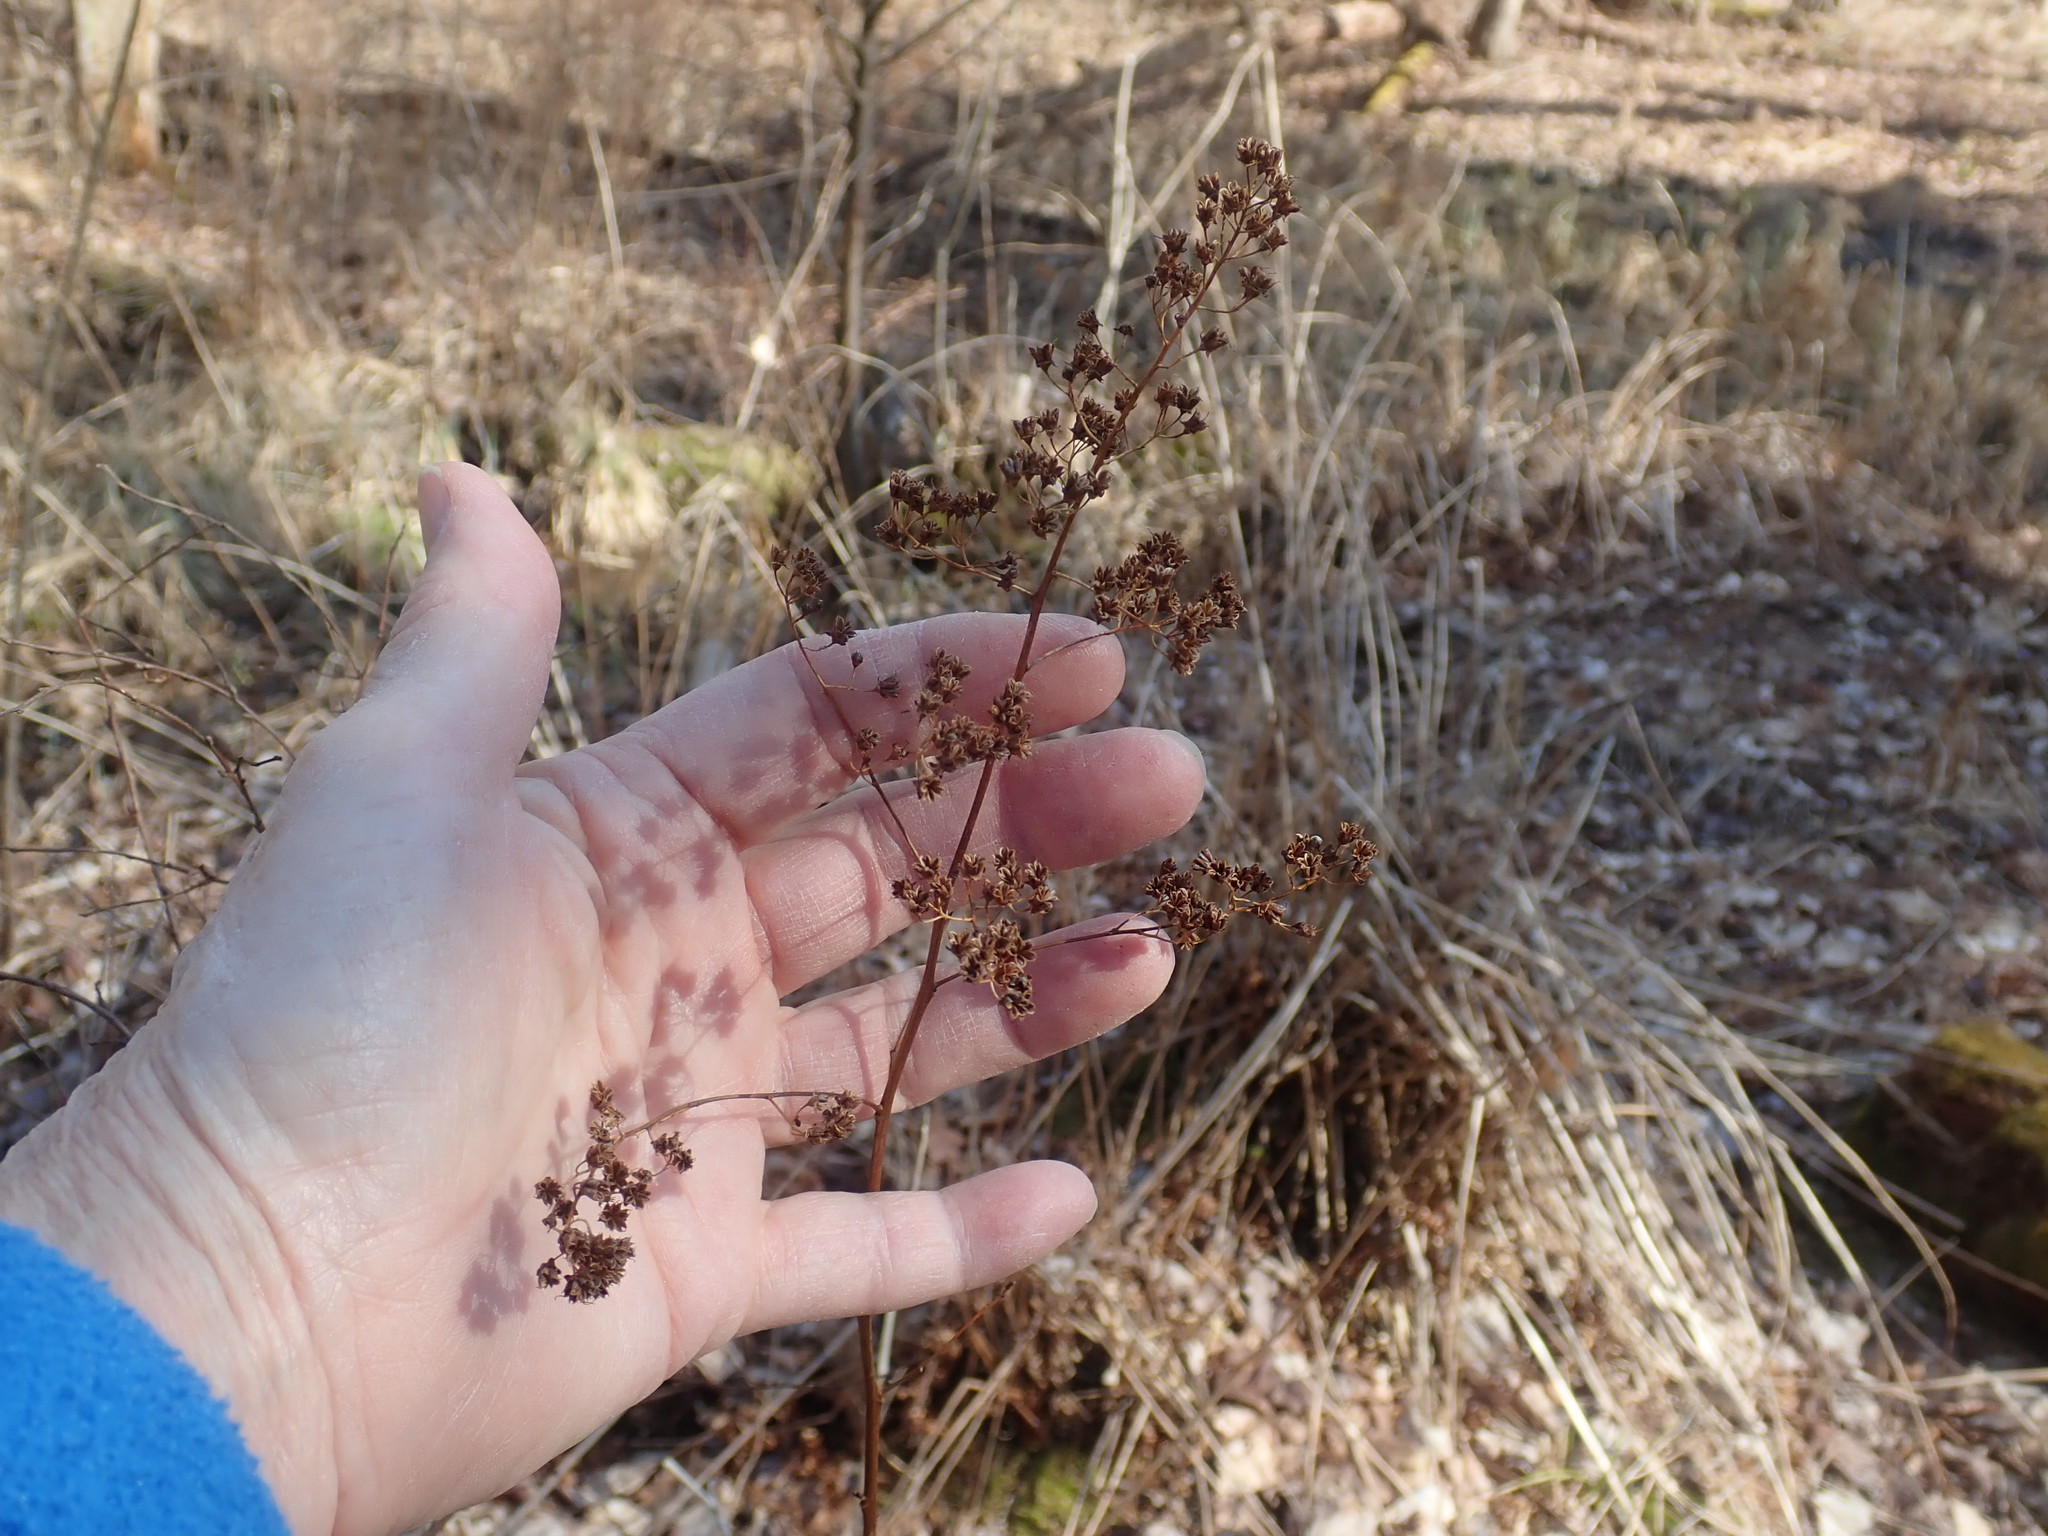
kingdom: Plantae
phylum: Tracheophyta
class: Magnoliopsida
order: Rosales
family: Rosaceae
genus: Spiraea
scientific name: Spiraea alba
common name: Pale bridewort
